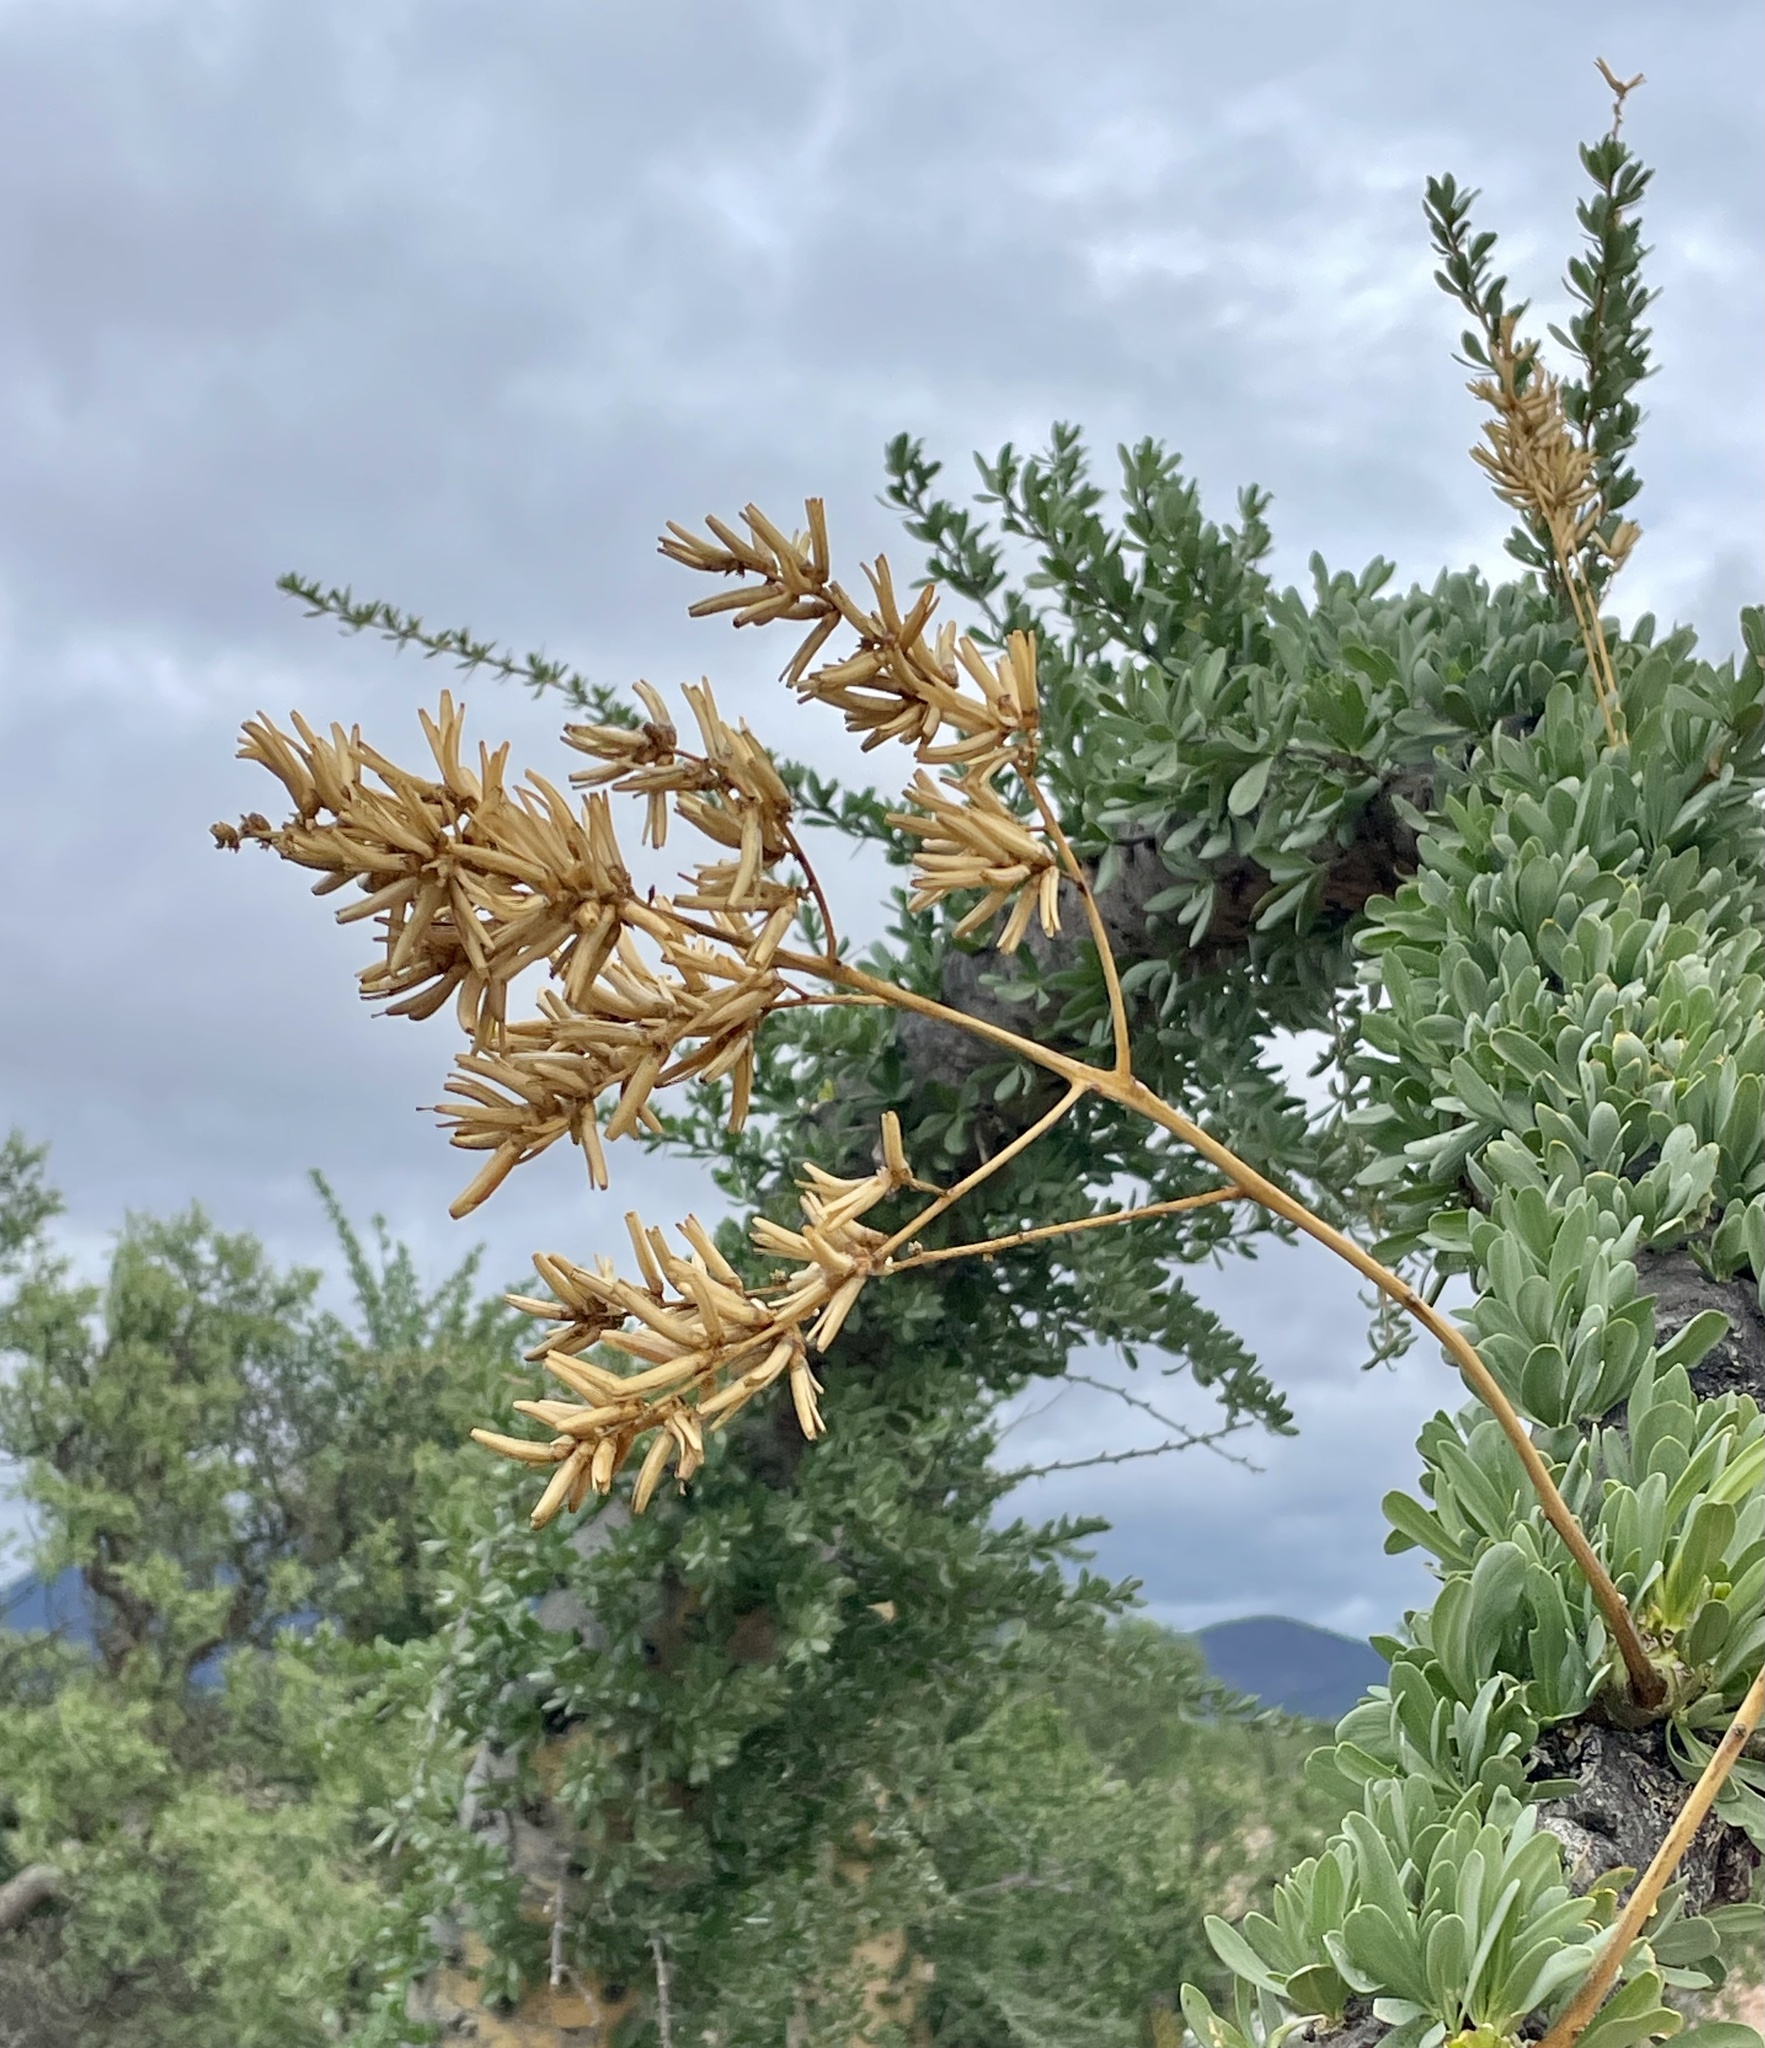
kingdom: Plantae
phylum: Tracheophyta
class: Magnoliopsida
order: Ericales
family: Fouquieriaceae
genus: Fouquieria
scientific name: Fouquieria columnaris
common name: Boojumtree
